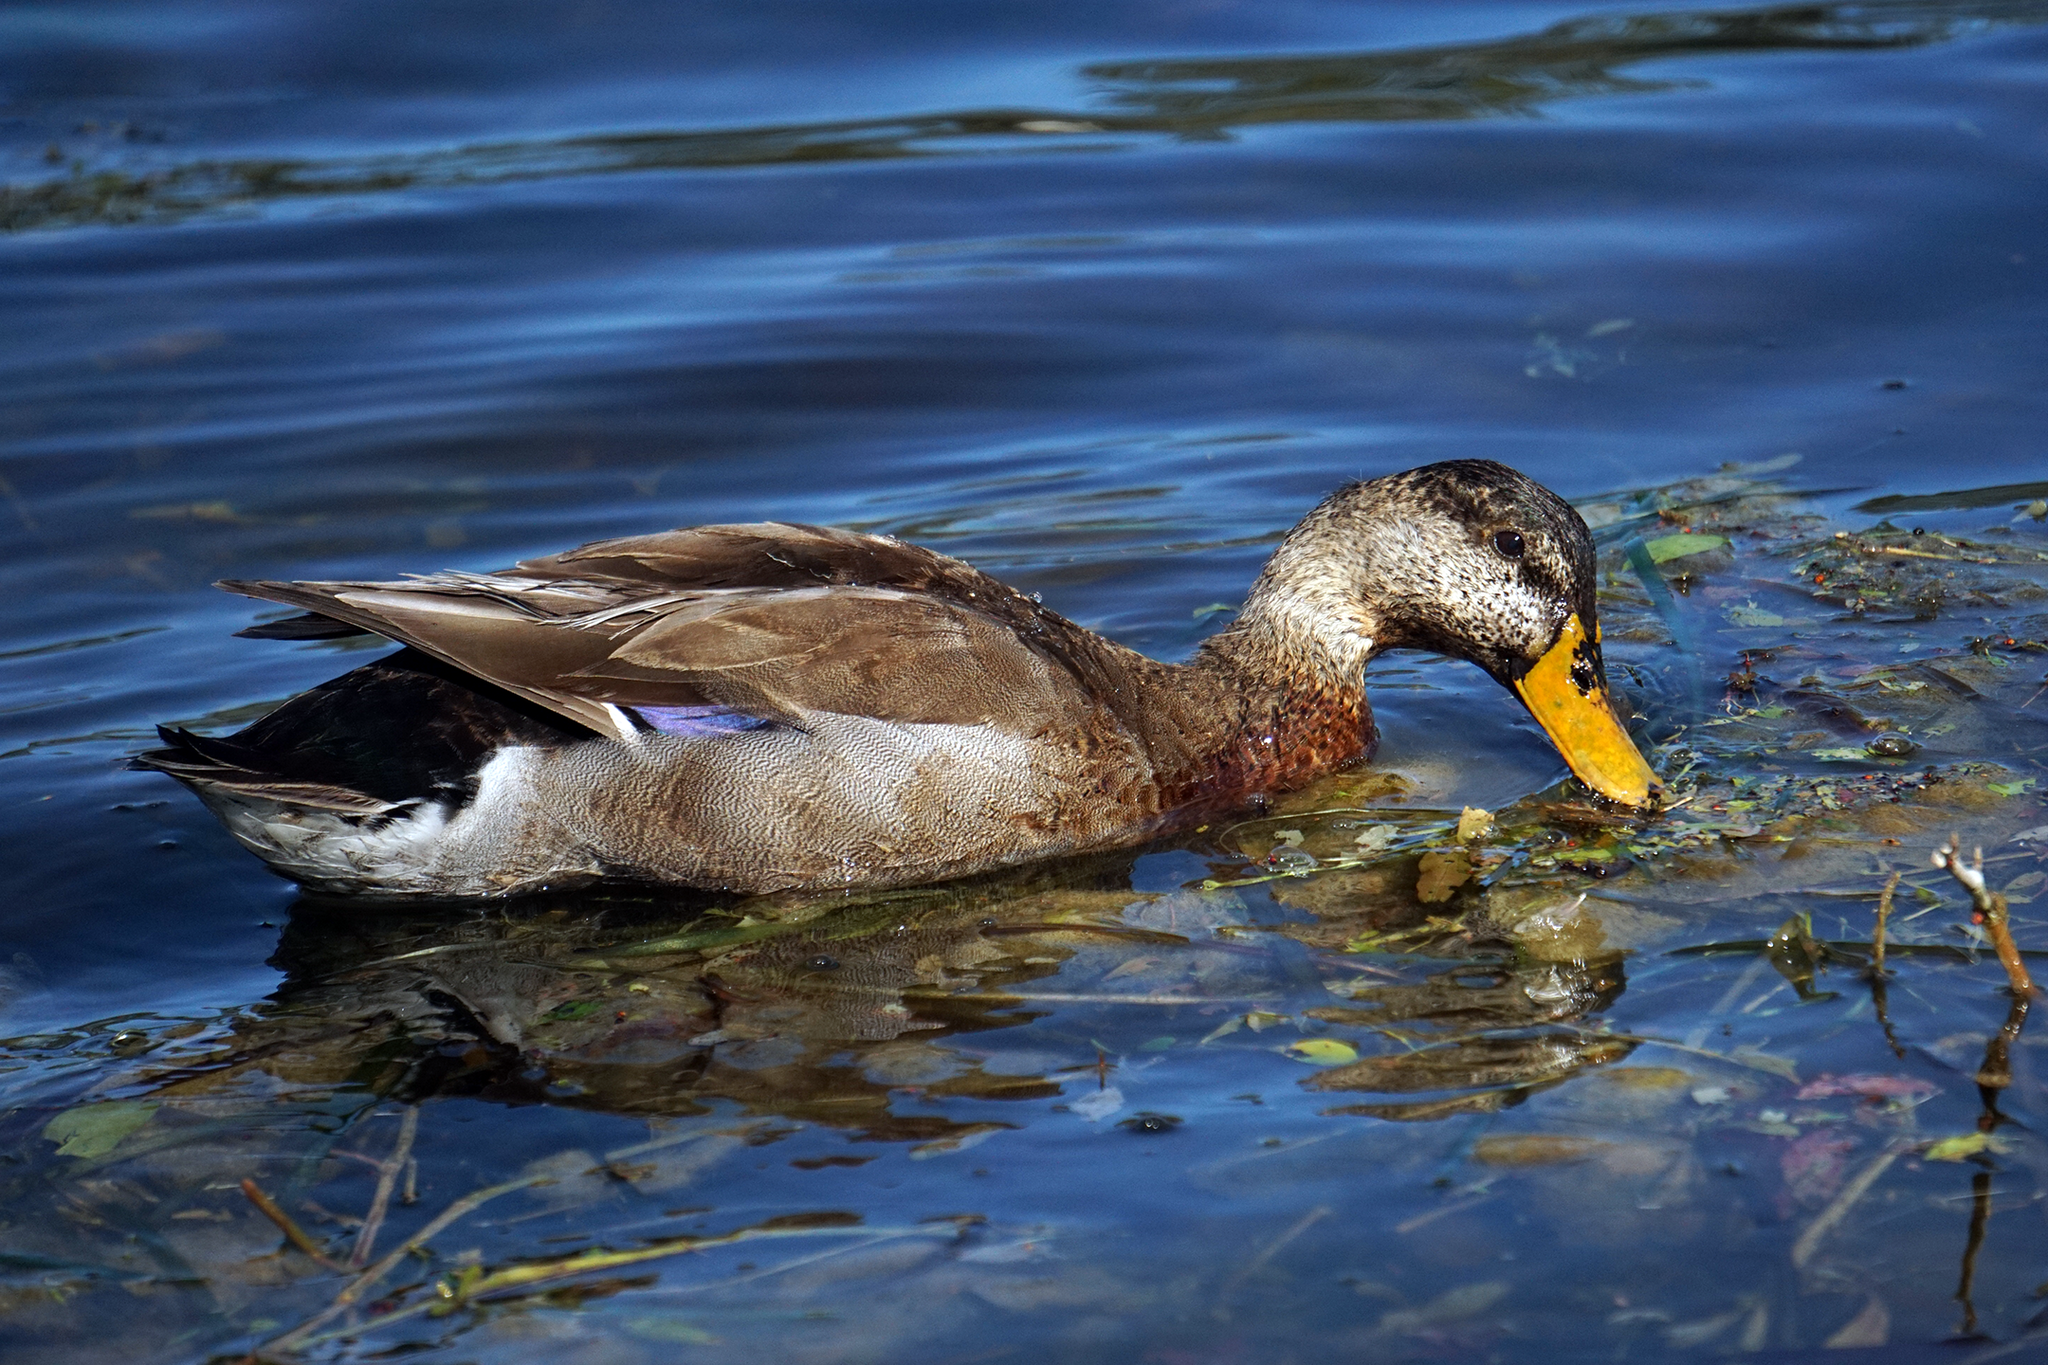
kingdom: Animalia
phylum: Chordata
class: Aves
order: Anseriformes
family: Anatidae
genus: Anas
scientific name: Anas platyrhynchos
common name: Mallard
